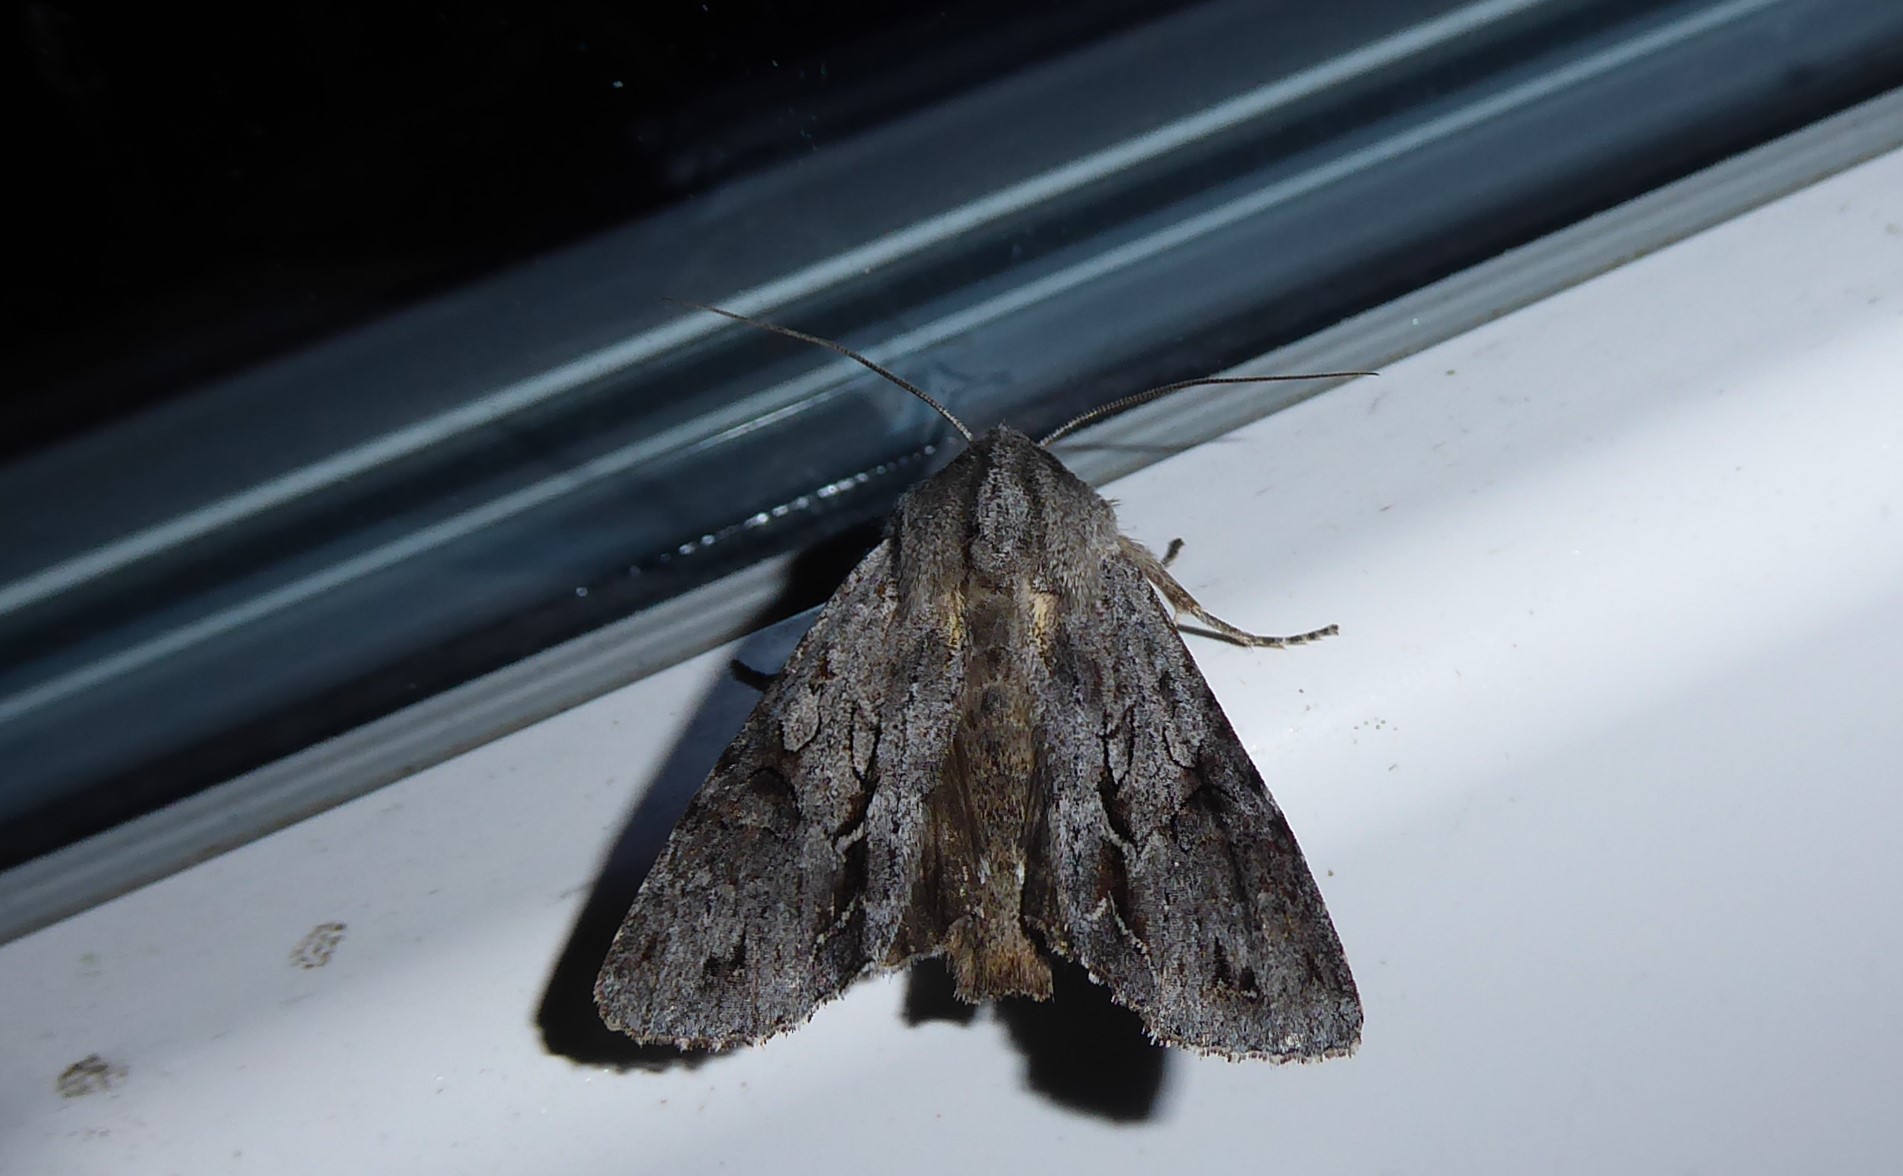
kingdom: Animalia
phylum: Arthropoda
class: Insecta
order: Lepidoptera
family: Noctuidae
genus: Ichneutica
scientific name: Ichneutica
